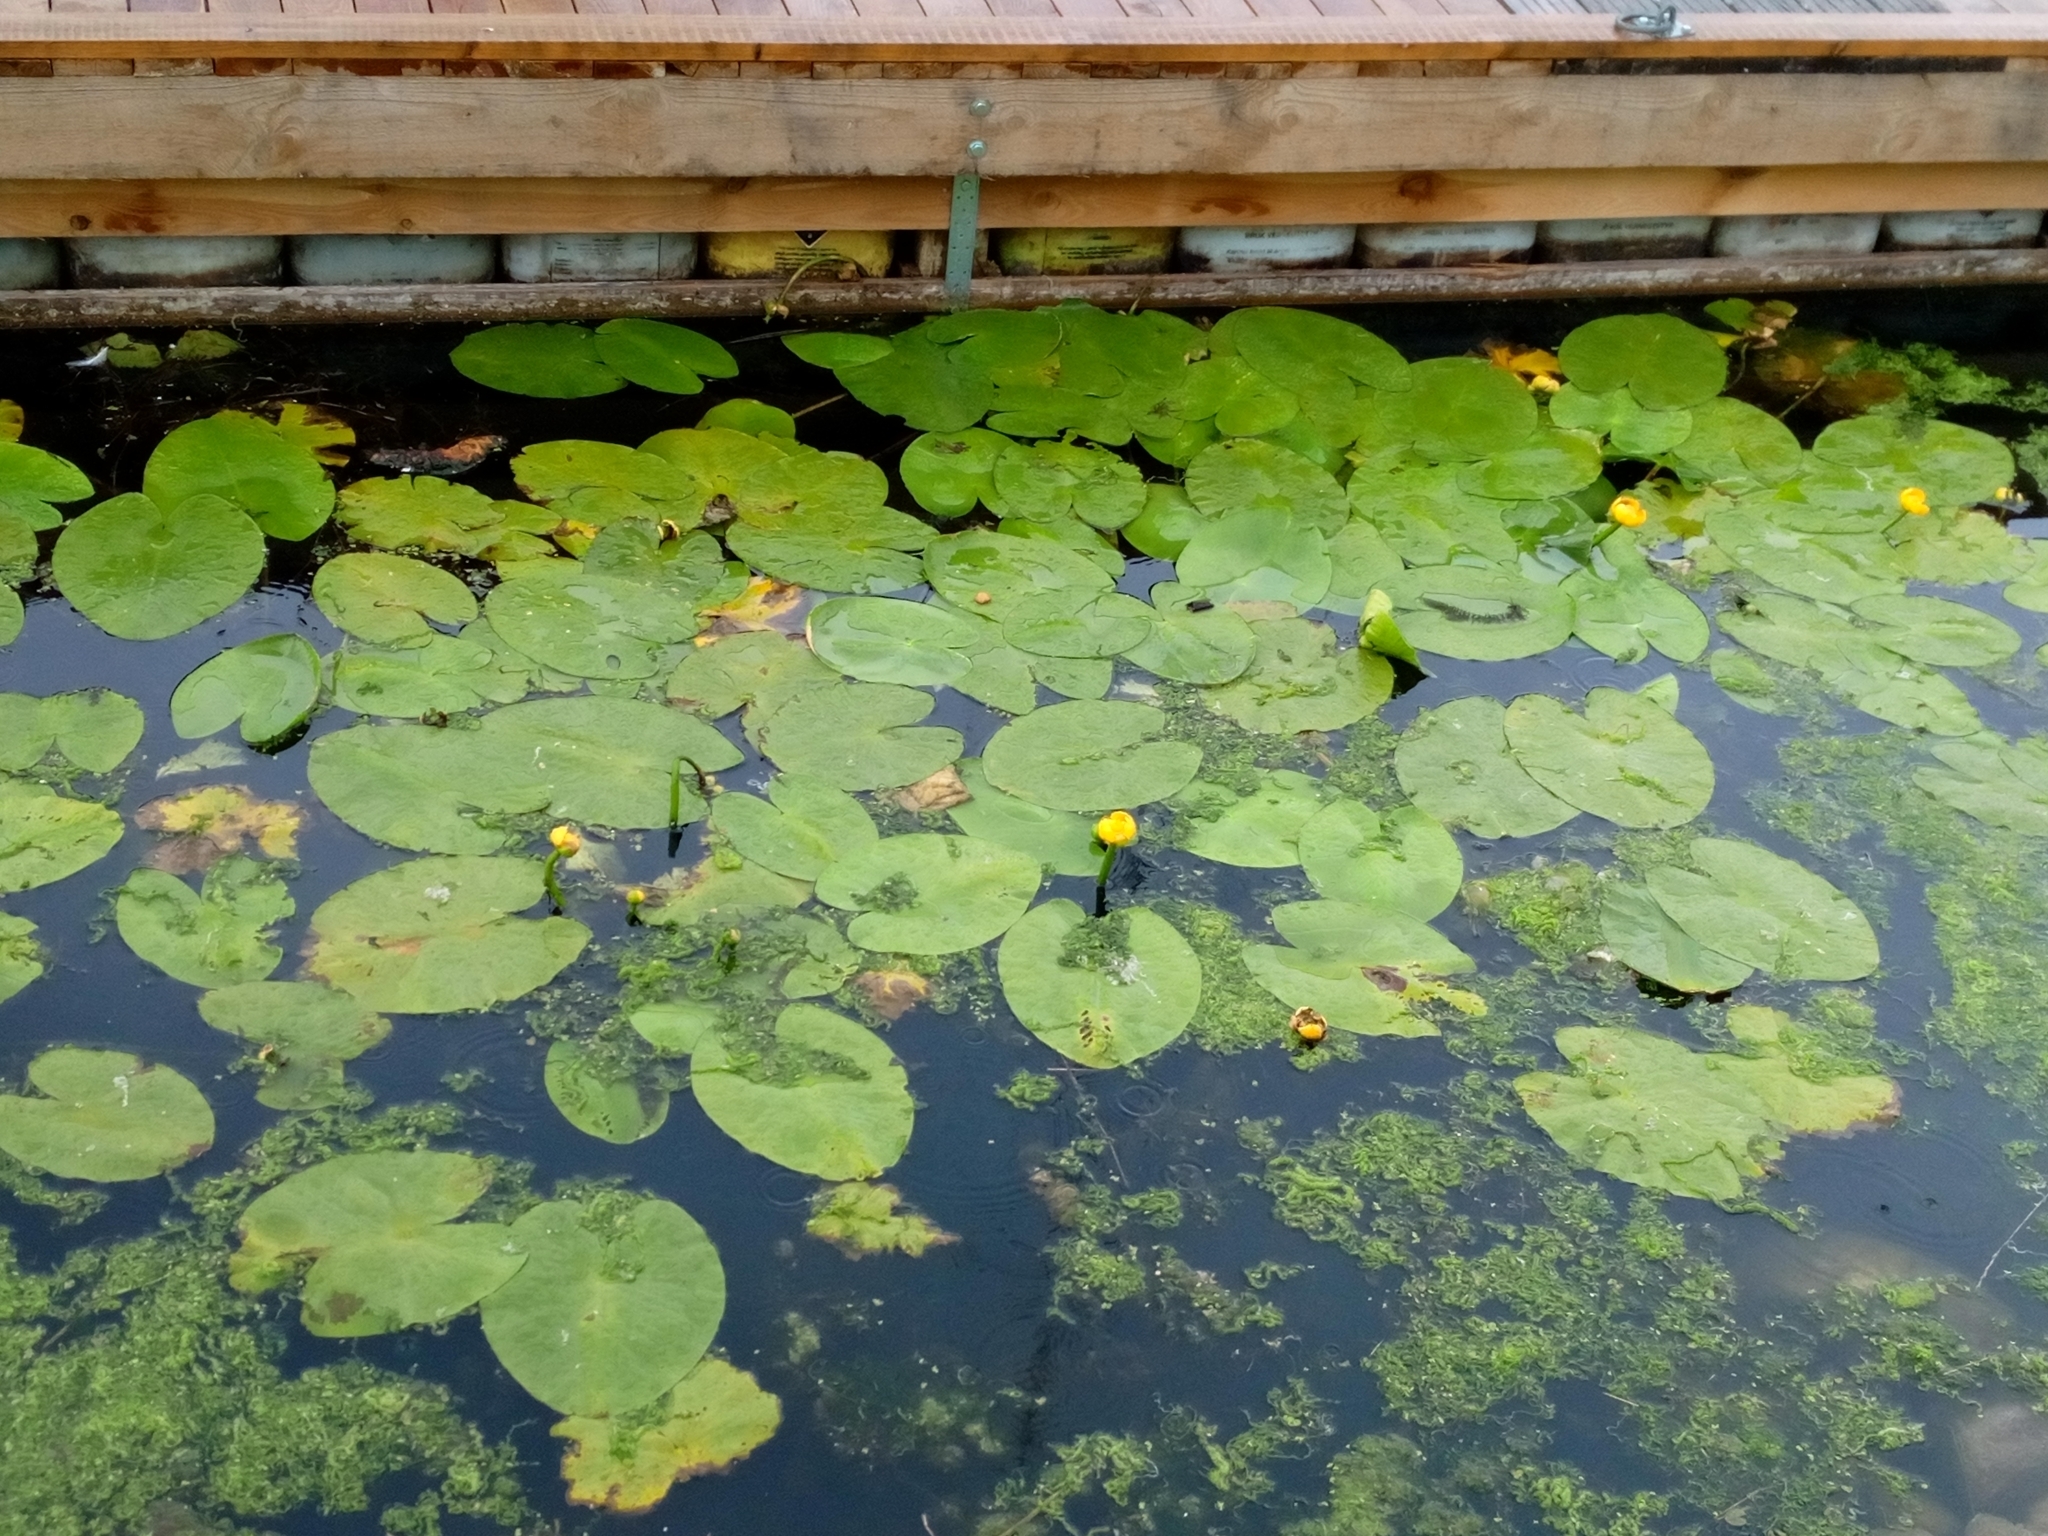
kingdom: Plantae
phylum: Tracheophyta
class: Magnoliopsida
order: Nymphaeales
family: Nymphaeaceae
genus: Nuphar
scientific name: Nuphar lutea
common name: Yellow water-lily
